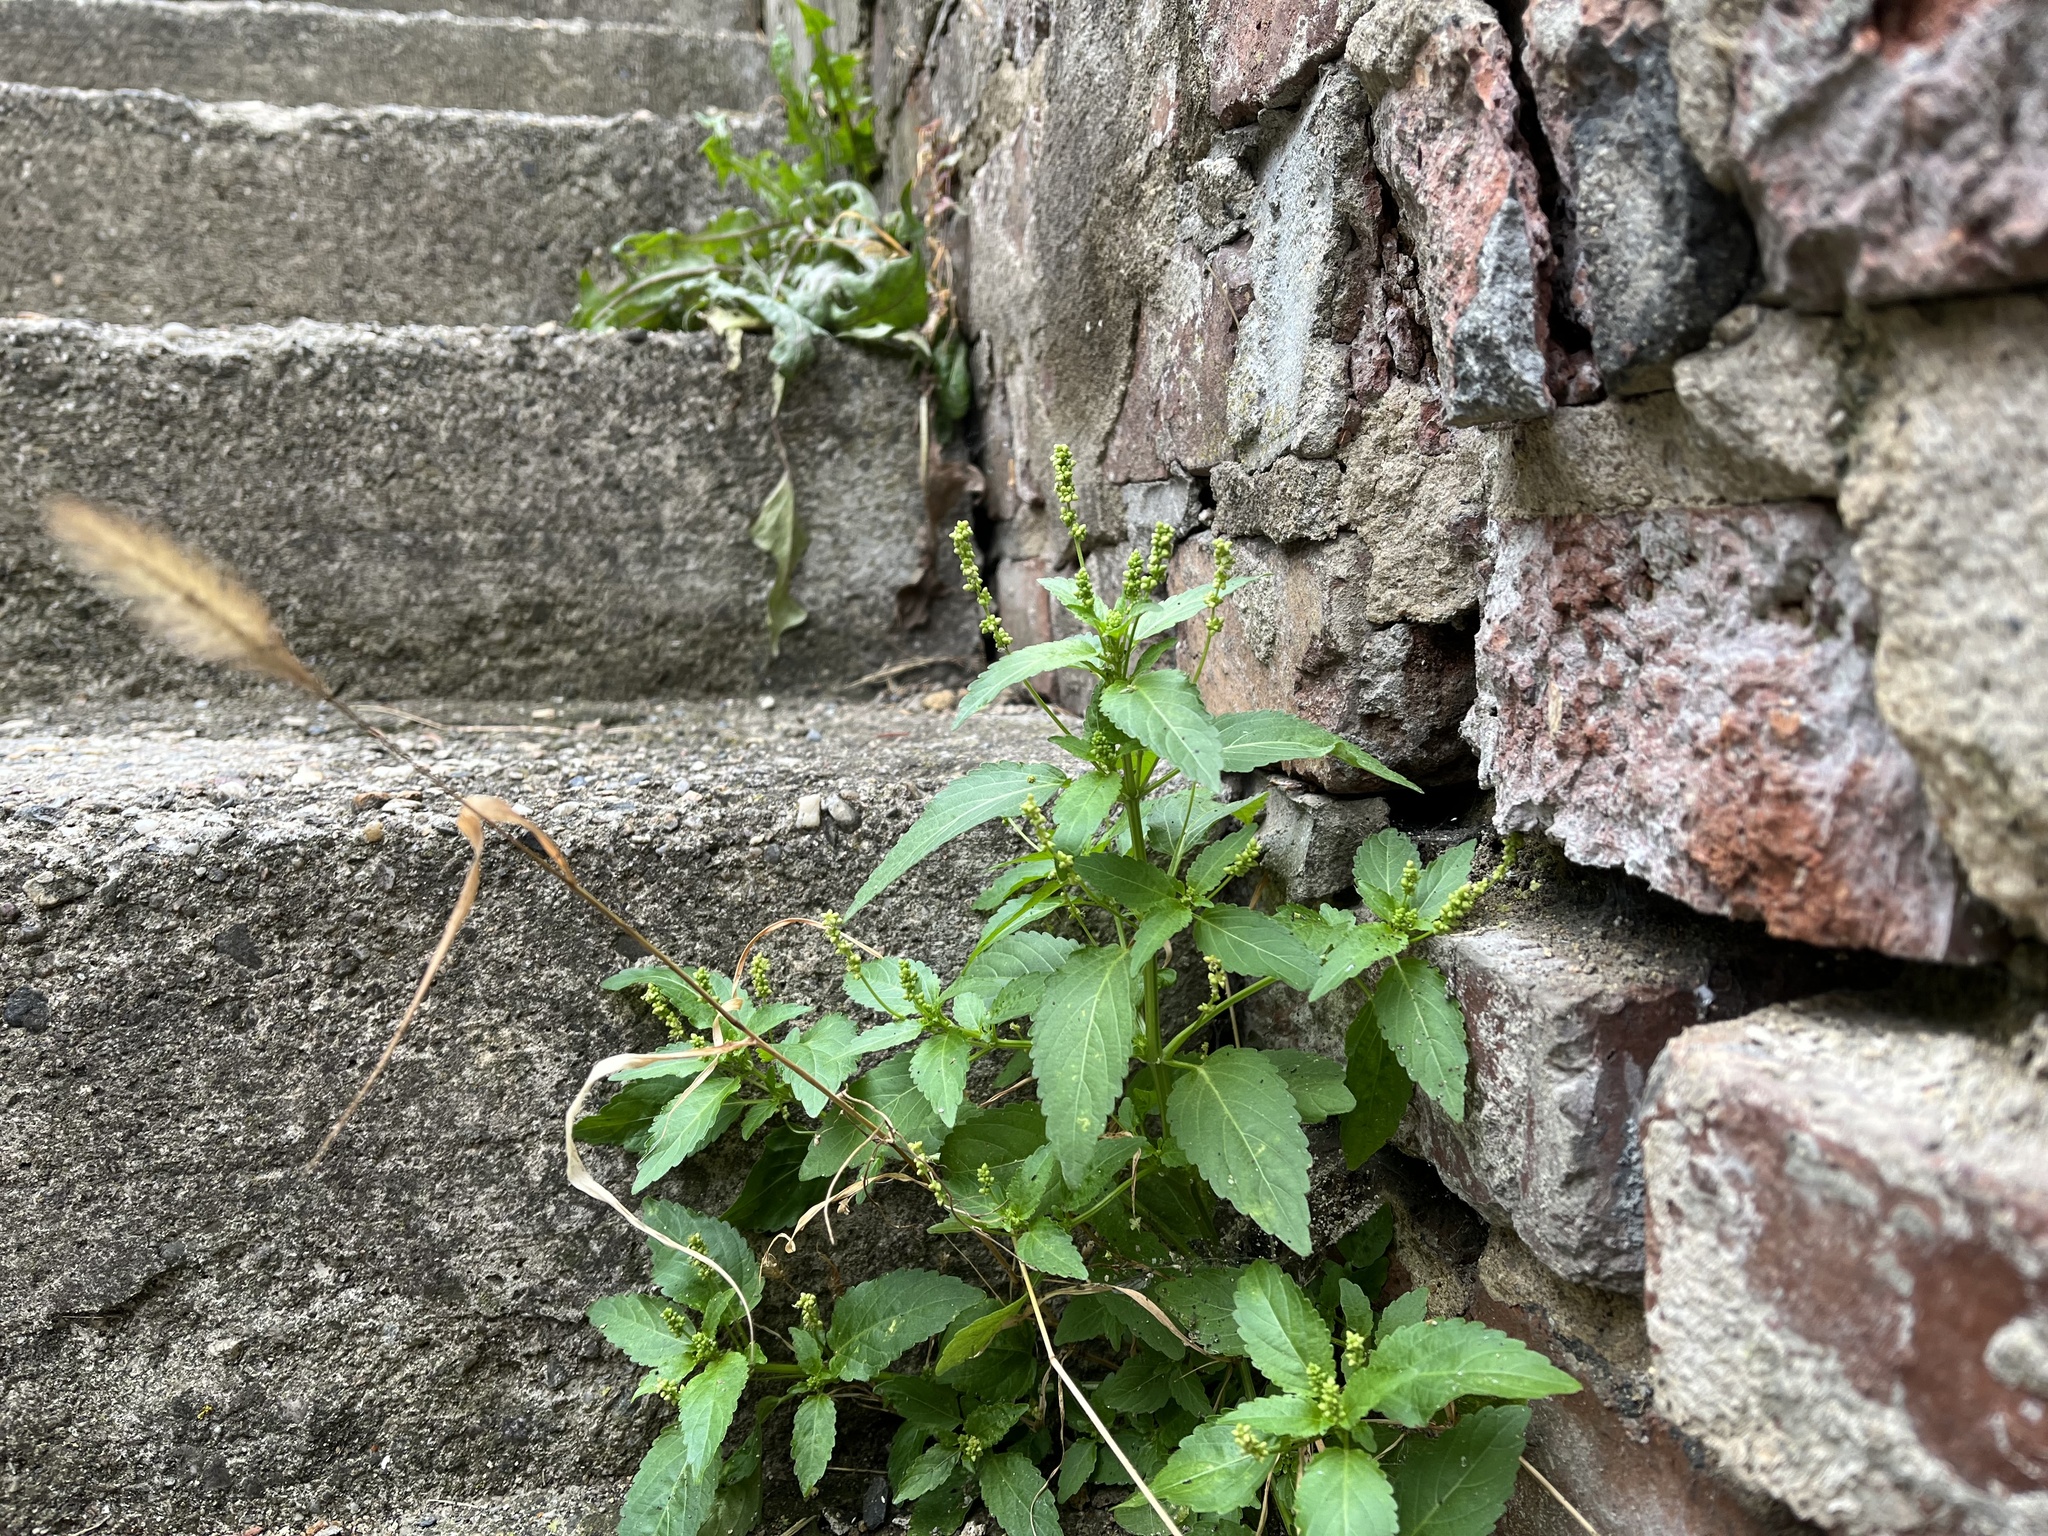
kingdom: Plantae
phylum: Tracheophyta
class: Magnoliopsida
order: Malpighiales
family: Euphorbiaceae
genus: Mercurialis
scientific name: Mercurialis annua
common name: Annual mercury
